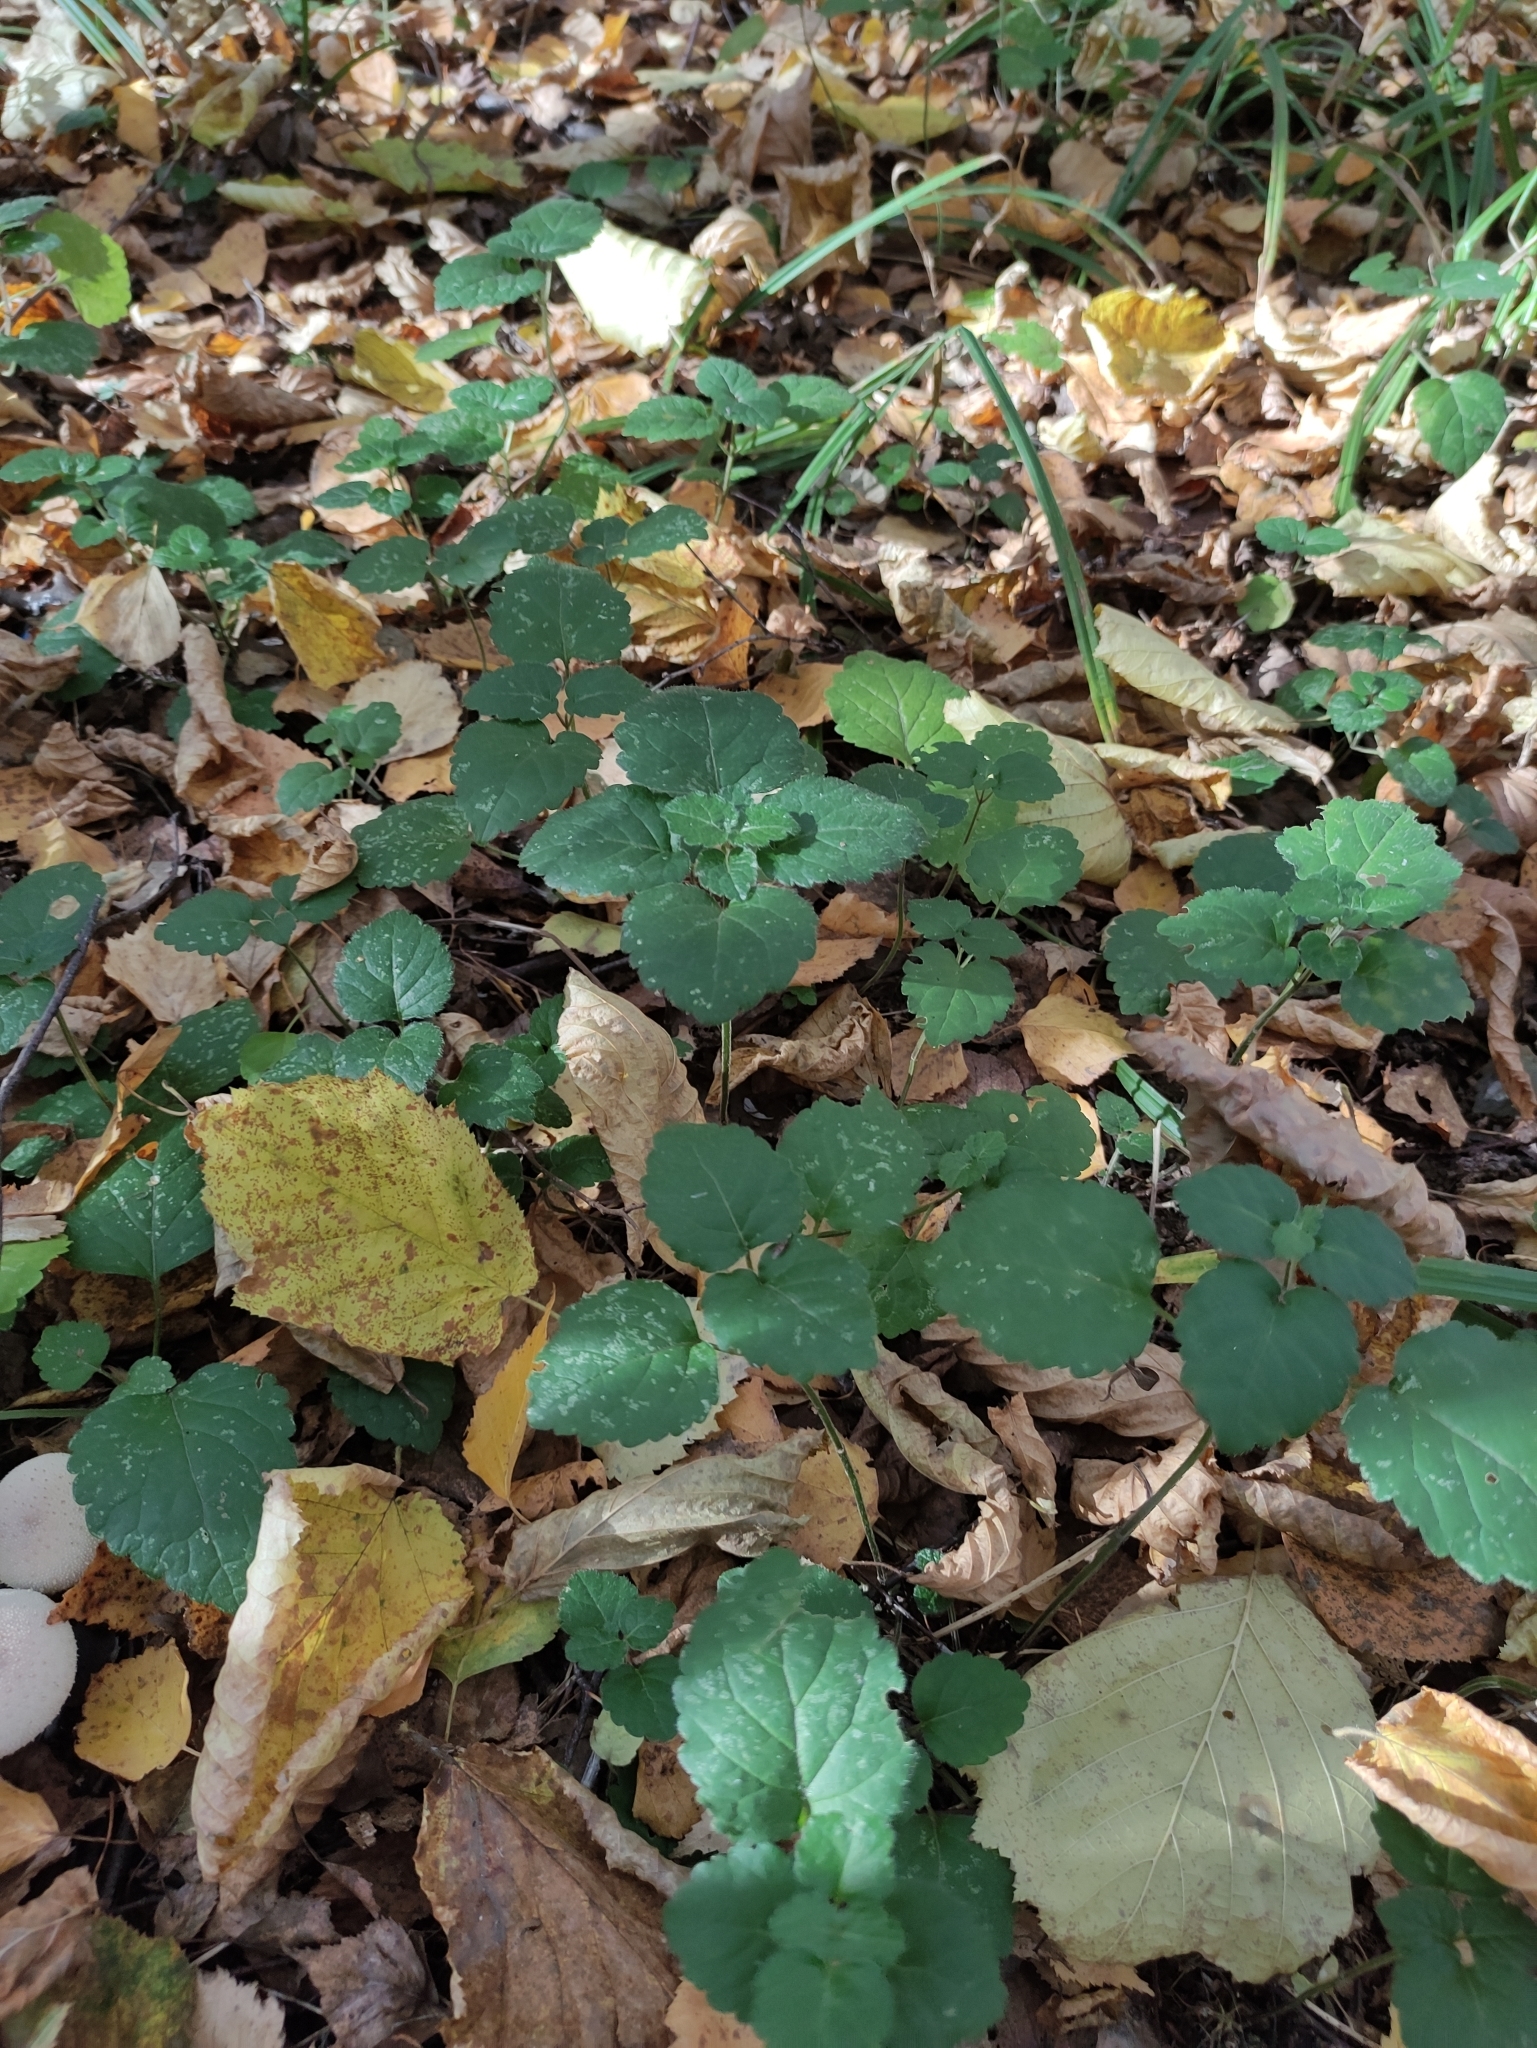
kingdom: Plantae
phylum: Tracheophyta
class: Magnoliopsida
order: Lamiales
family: Lamiaceae
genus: Lamium
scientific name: Lamium galeobdolon
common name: Yellow archangel
